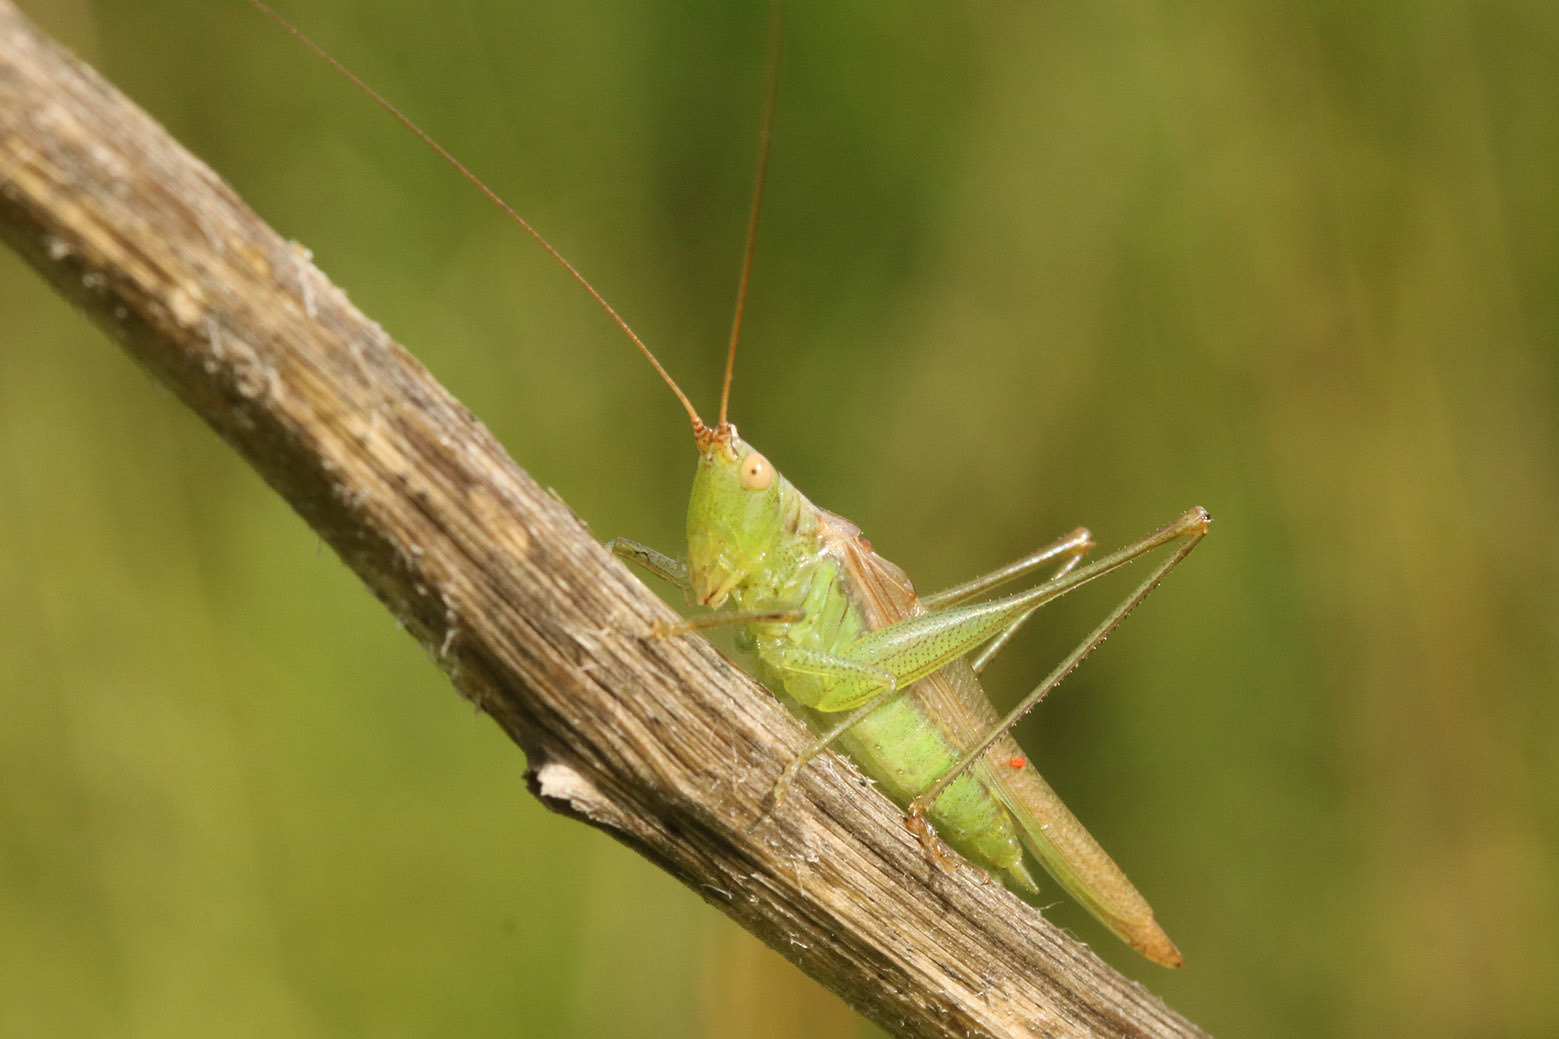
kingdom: Animalia
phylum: Arthropoda
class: Insecta
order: Orthoptera
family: Tettigoniidae
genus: Conocephalus
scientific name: Conocephalus longipes
